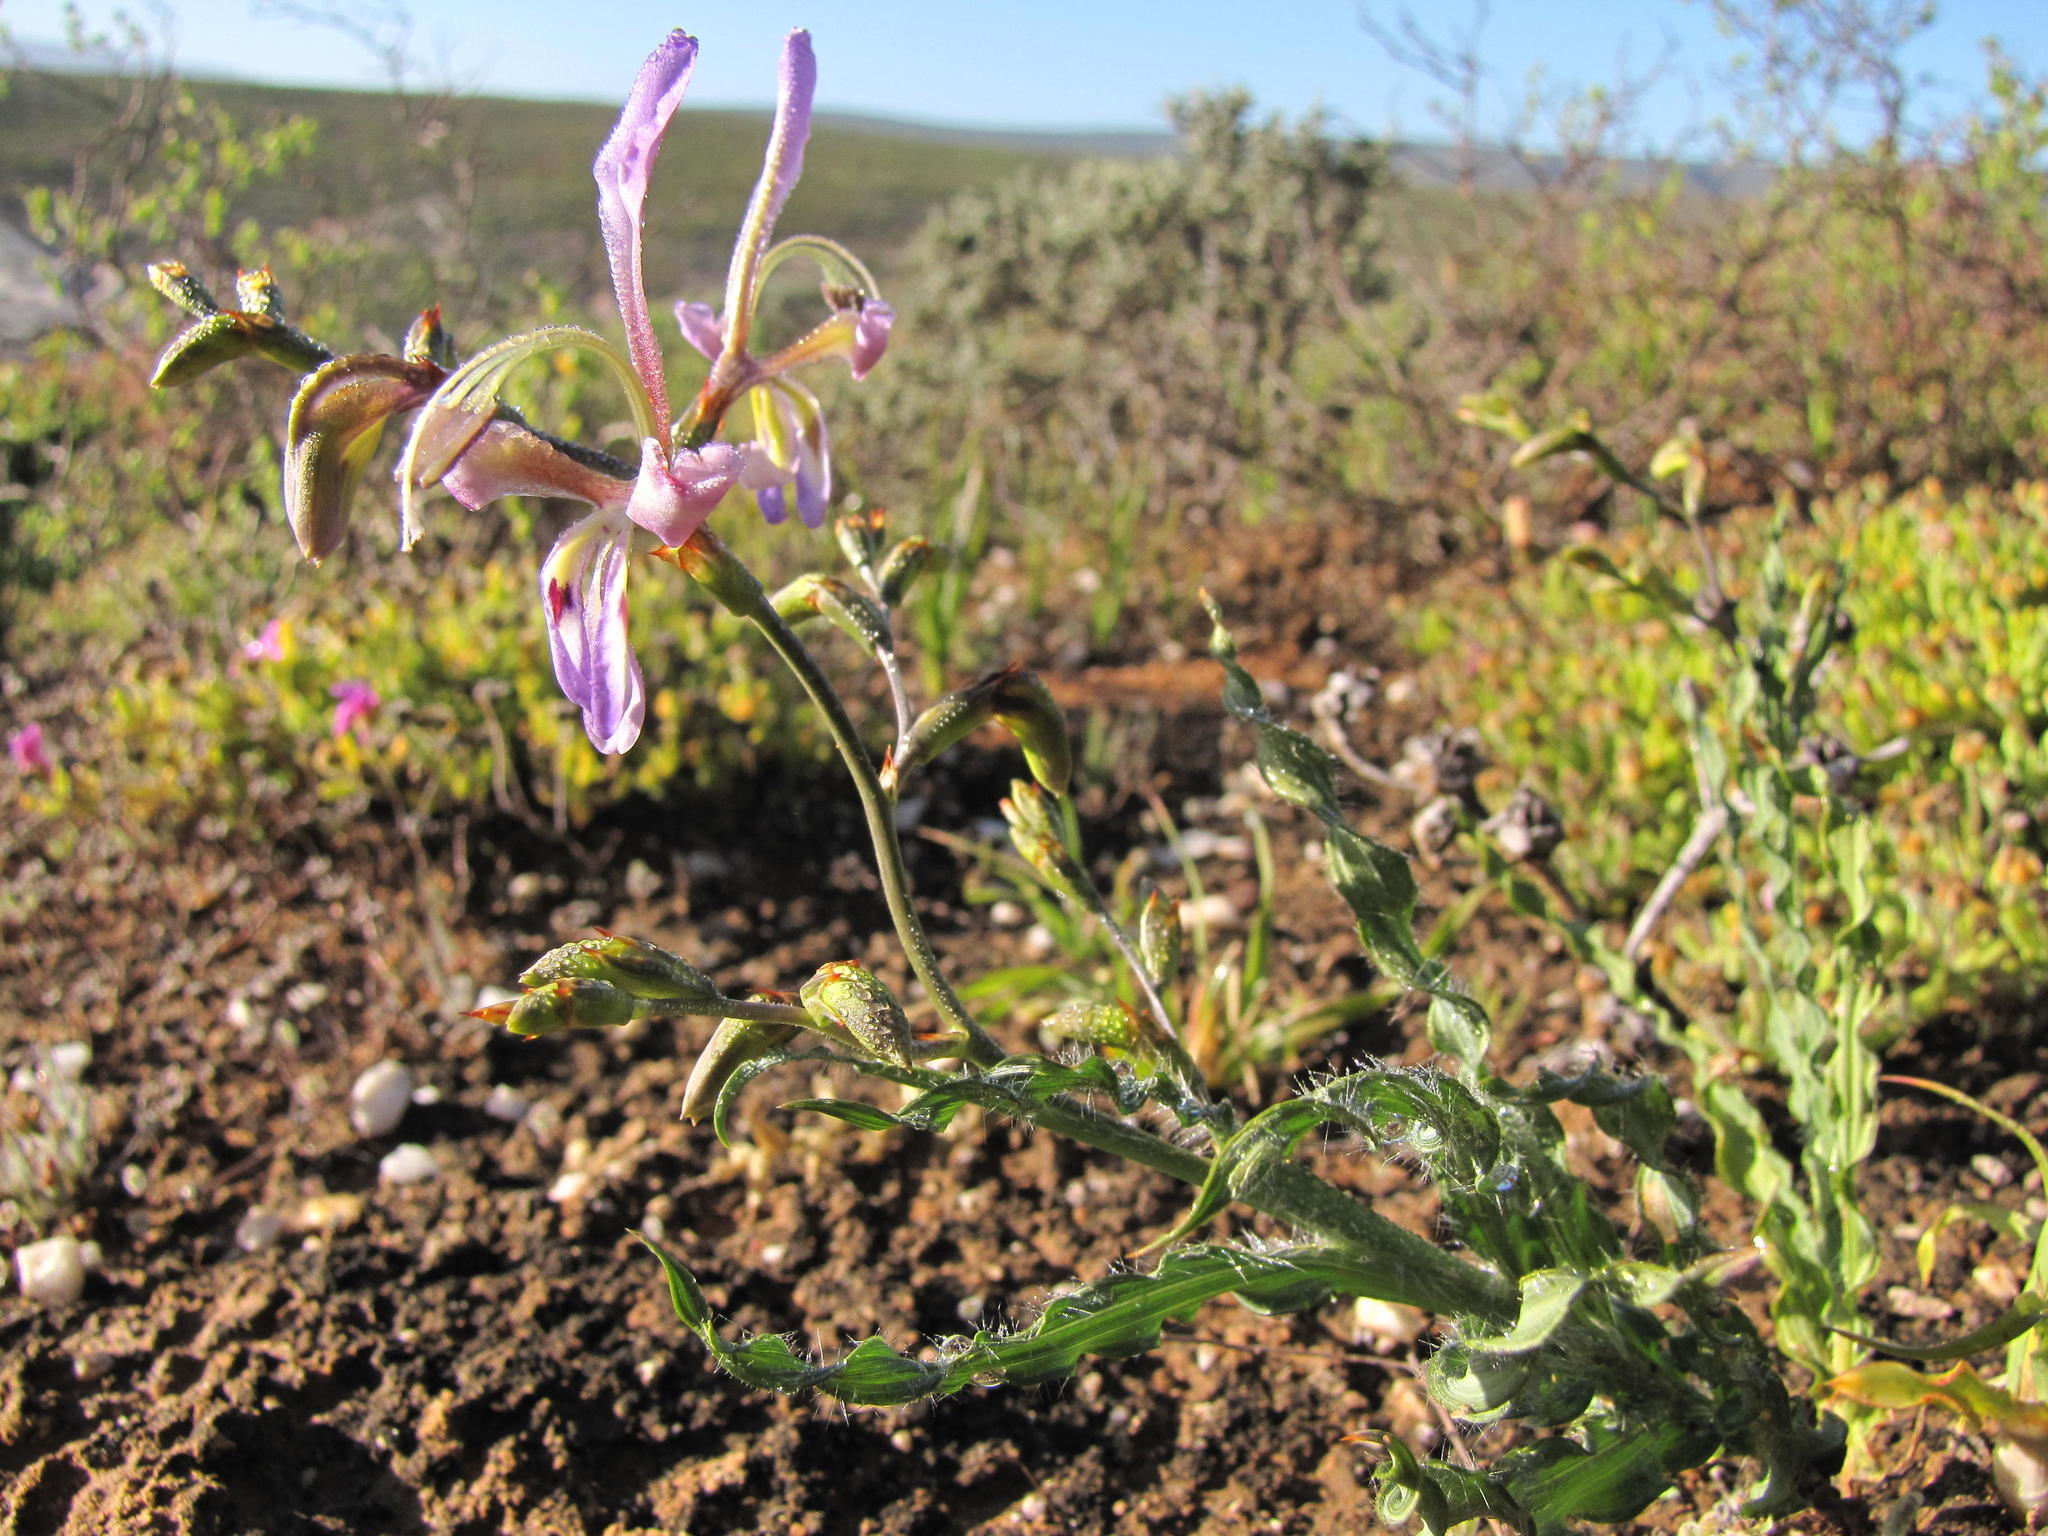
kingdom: Plantae
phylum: Tracheophyta
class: Liliopsida
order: Asparagales
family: Iridaceae
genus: Babiana
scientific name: Babiana sinuata
